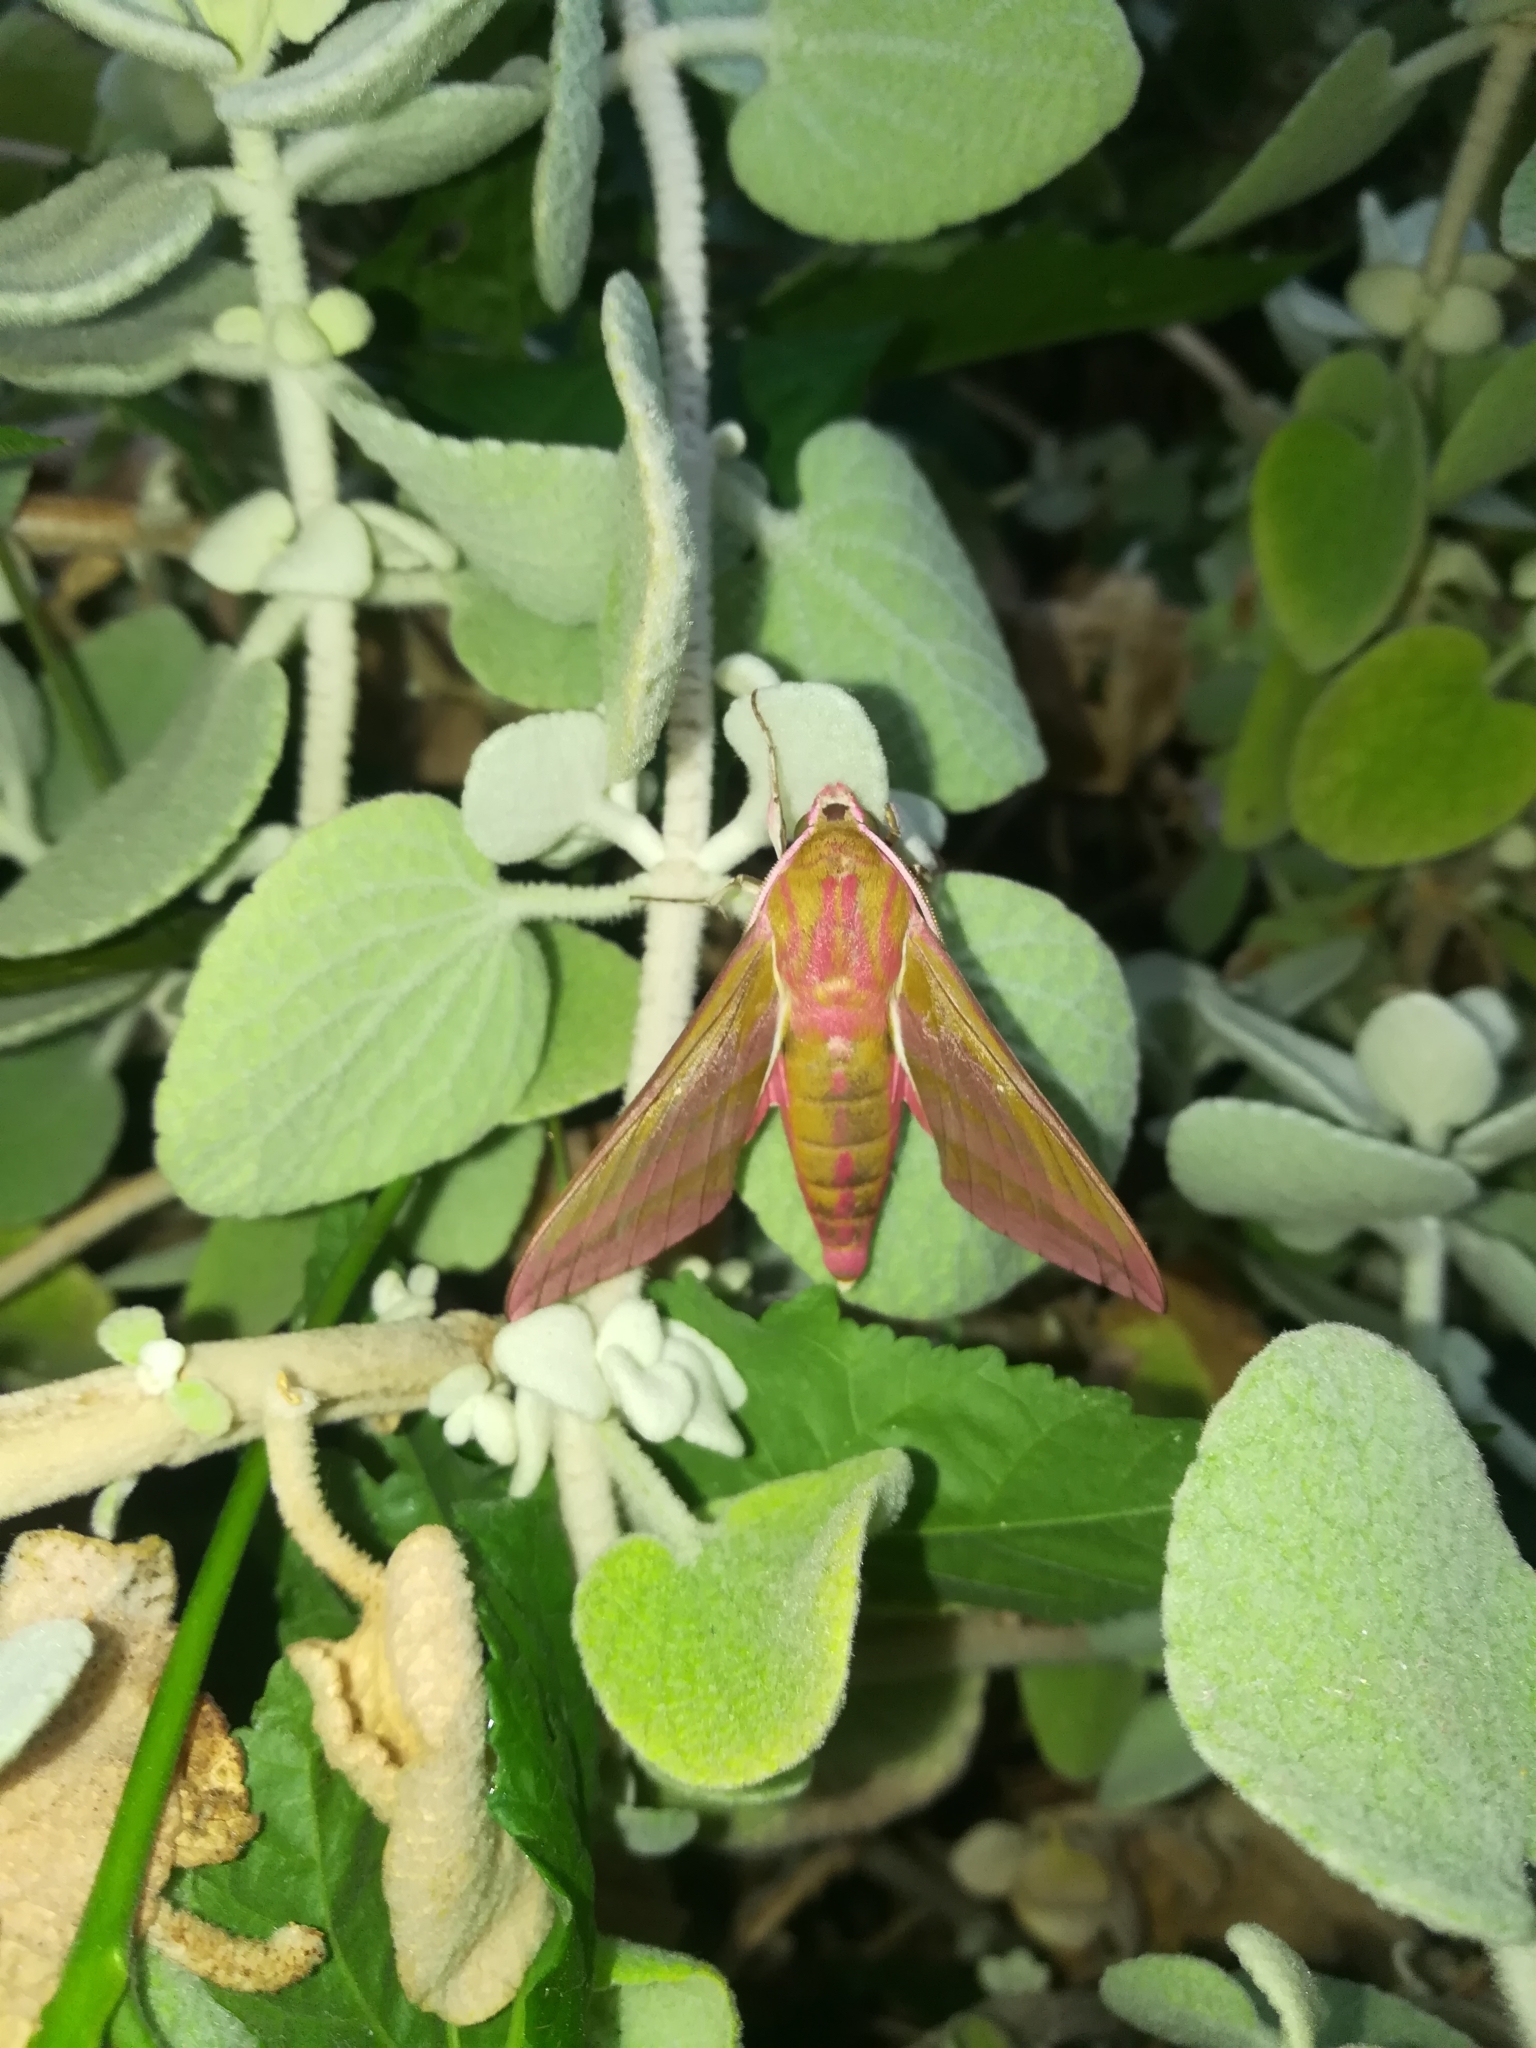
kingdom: Animalia
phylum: Arthropoda
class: Insecta
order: Lepidoptera
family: Sphingidae
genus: Deilephila
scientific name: Deilephila elpenor
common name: Elephant hawk-moth
